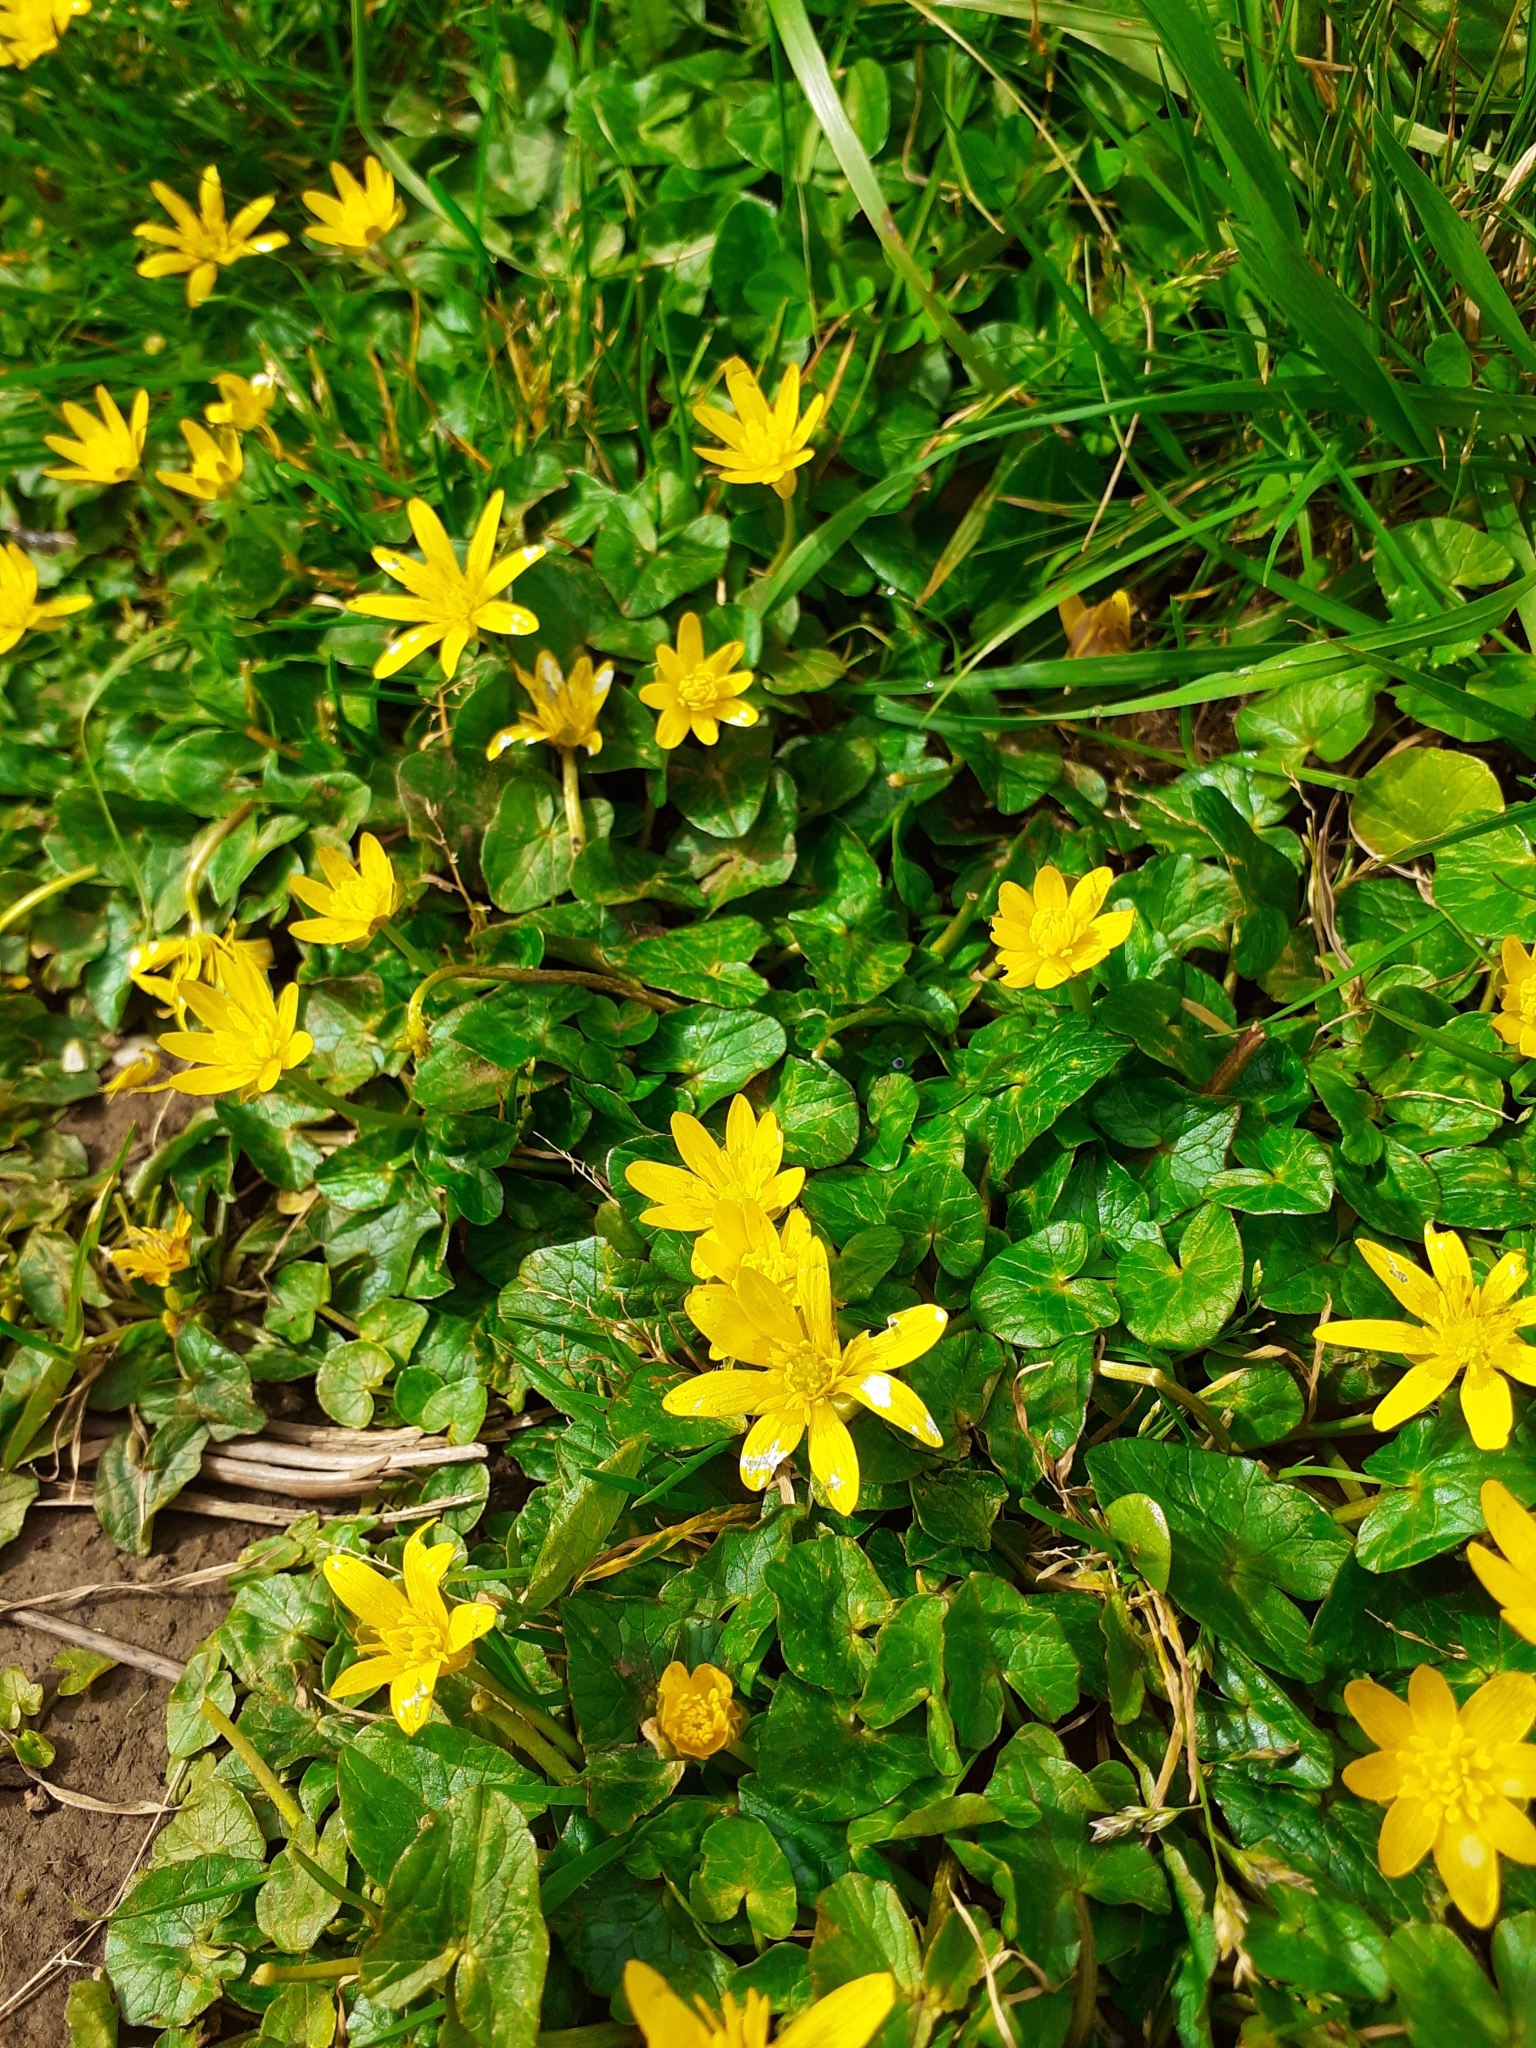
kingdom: Plantae
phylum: Tracheophyta
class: Magnoliopsida
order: Ranunculales
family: Ranunculaceae
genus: Ficaria
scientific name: Ficaria verna
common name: Lesser celandine
